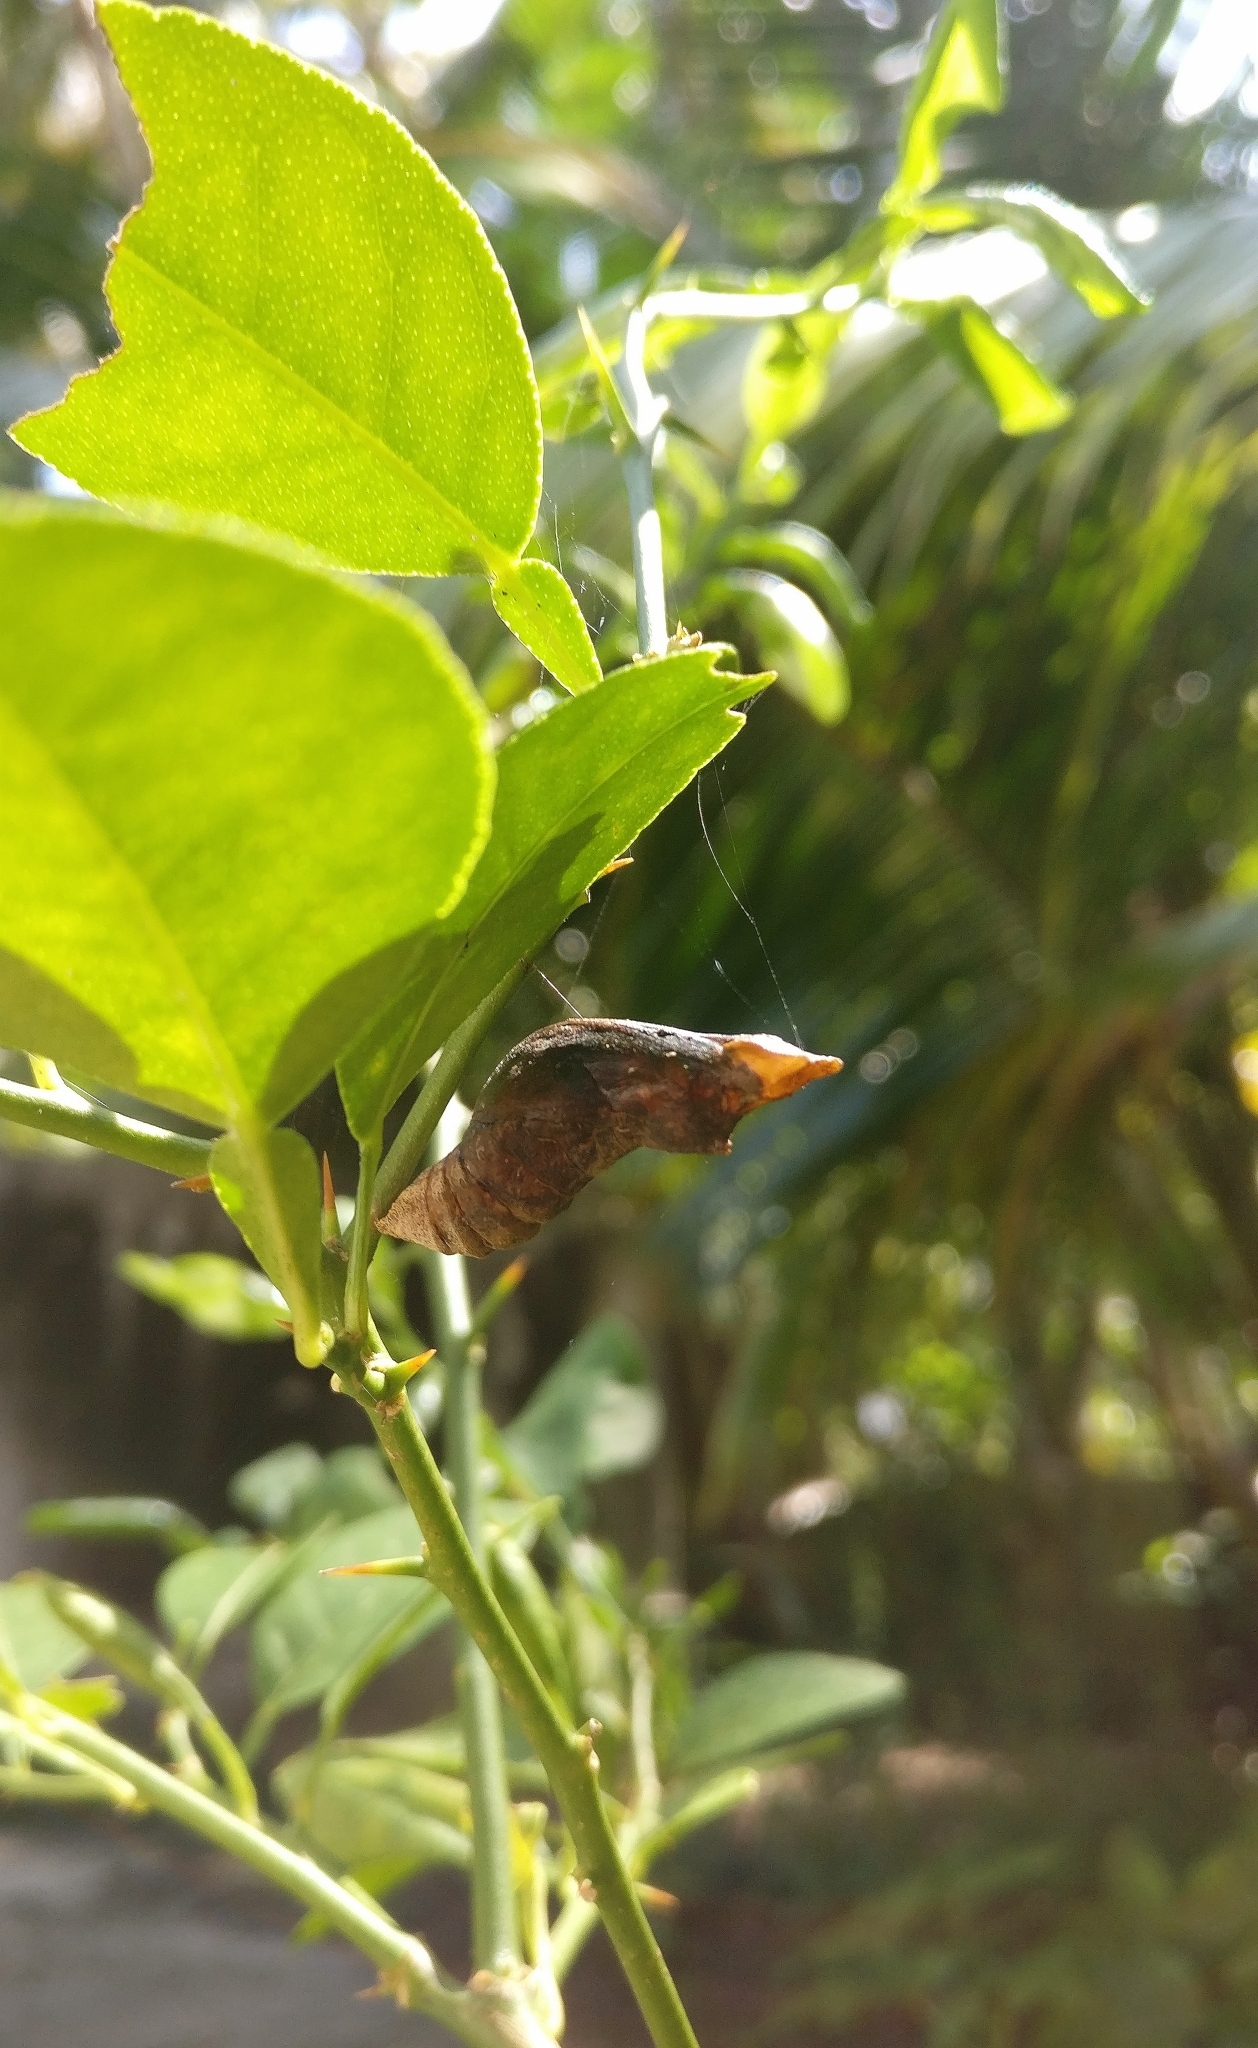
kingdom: Animalia
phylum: Arthropoda
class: Insecta
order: Lepidoptera
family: Papilionidae
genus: Papilio
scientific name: Papilio polytes
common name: Common mormon
